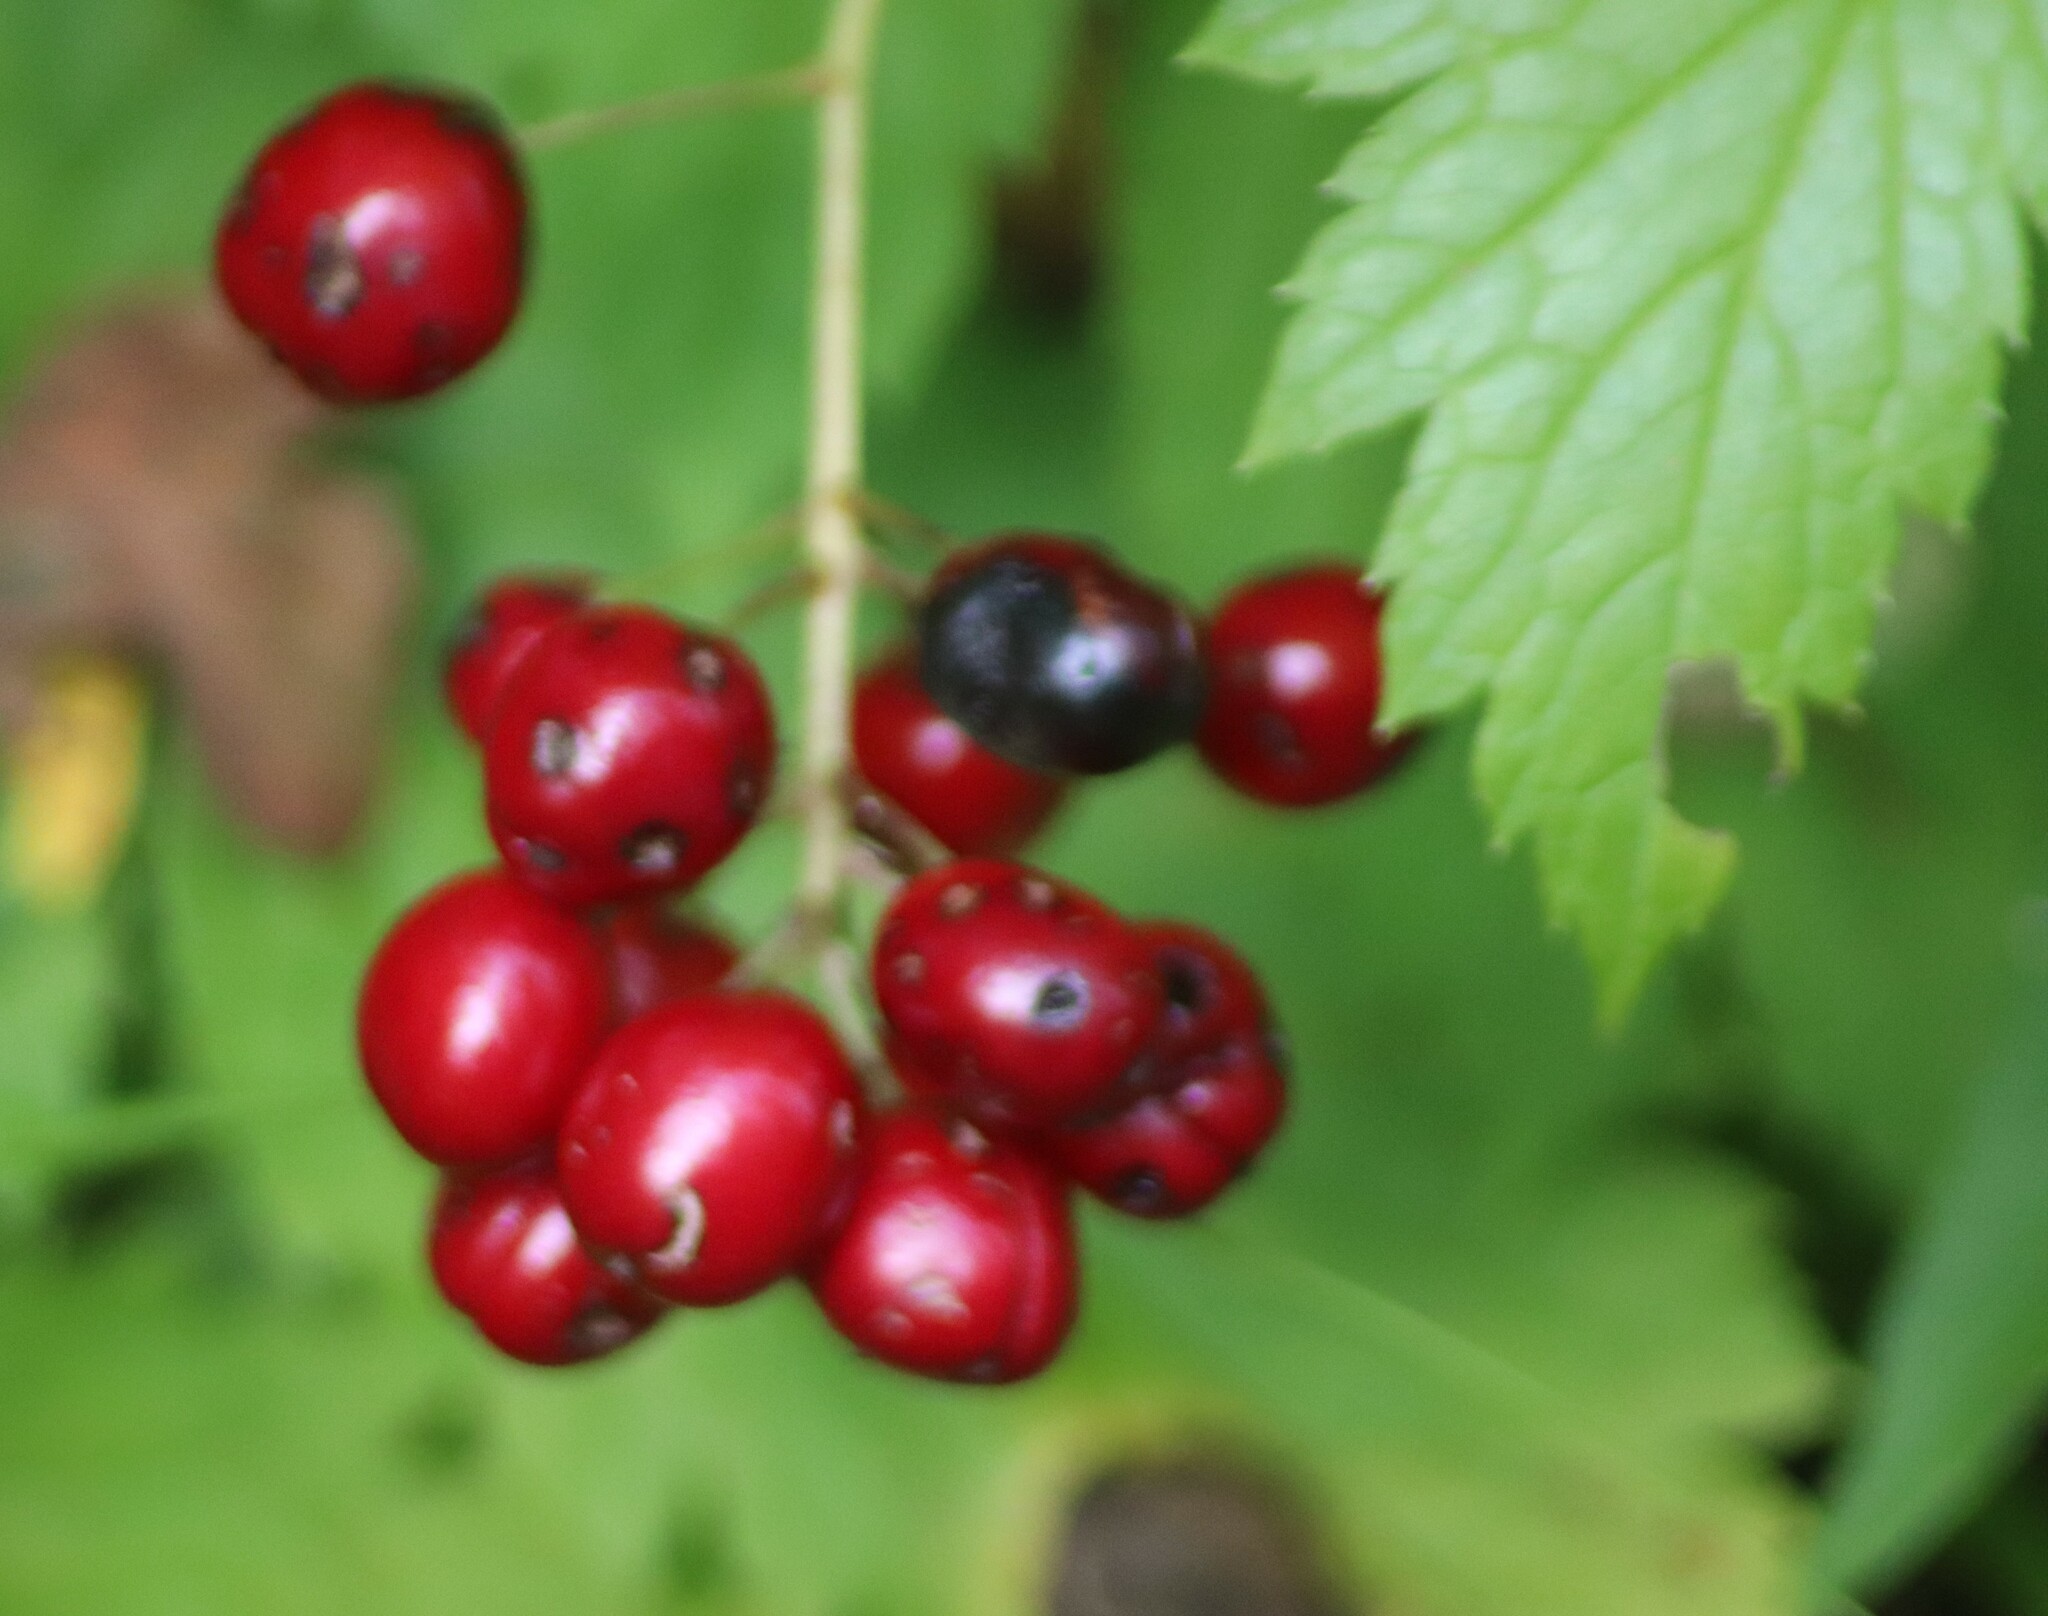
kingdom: Plantae
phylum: Tracheophyta
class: Magnoliopsida
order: Ranunculales
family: Ranunculaceae
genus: Actaea
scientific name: Actaea rubra
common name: Red baneberry
